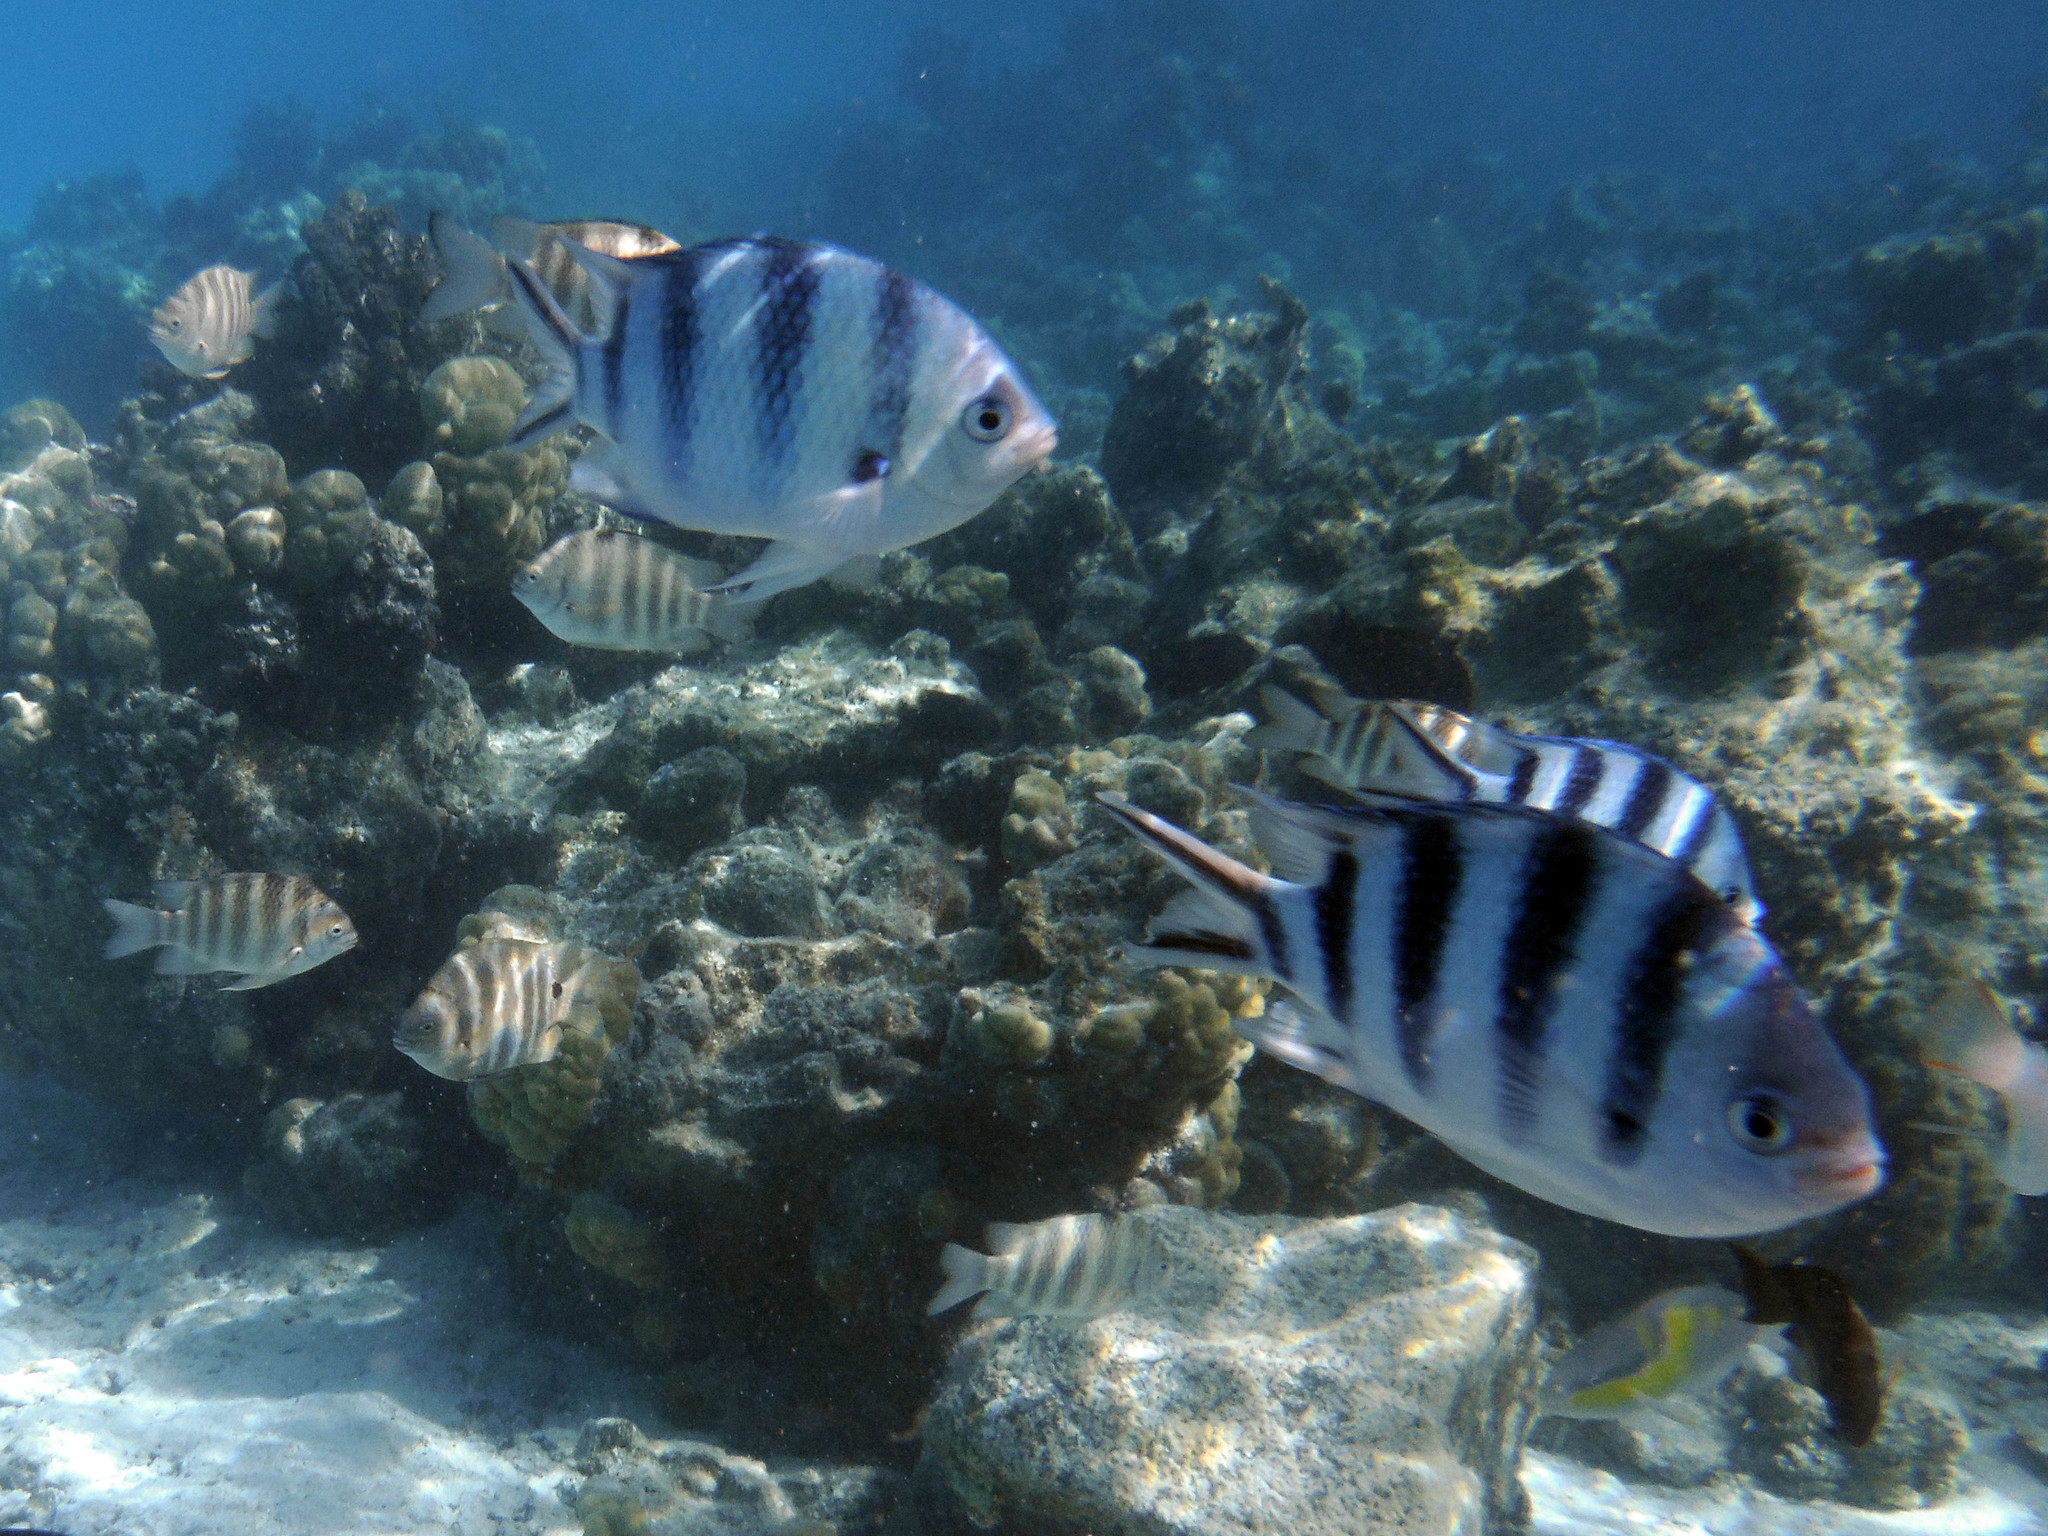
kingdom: Animalia
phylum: Chordata
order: Perciformes
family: Pomacentridae
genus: Abudefduf
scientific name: Abudefduf sexfasciatus
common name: Scissortail sergeant
